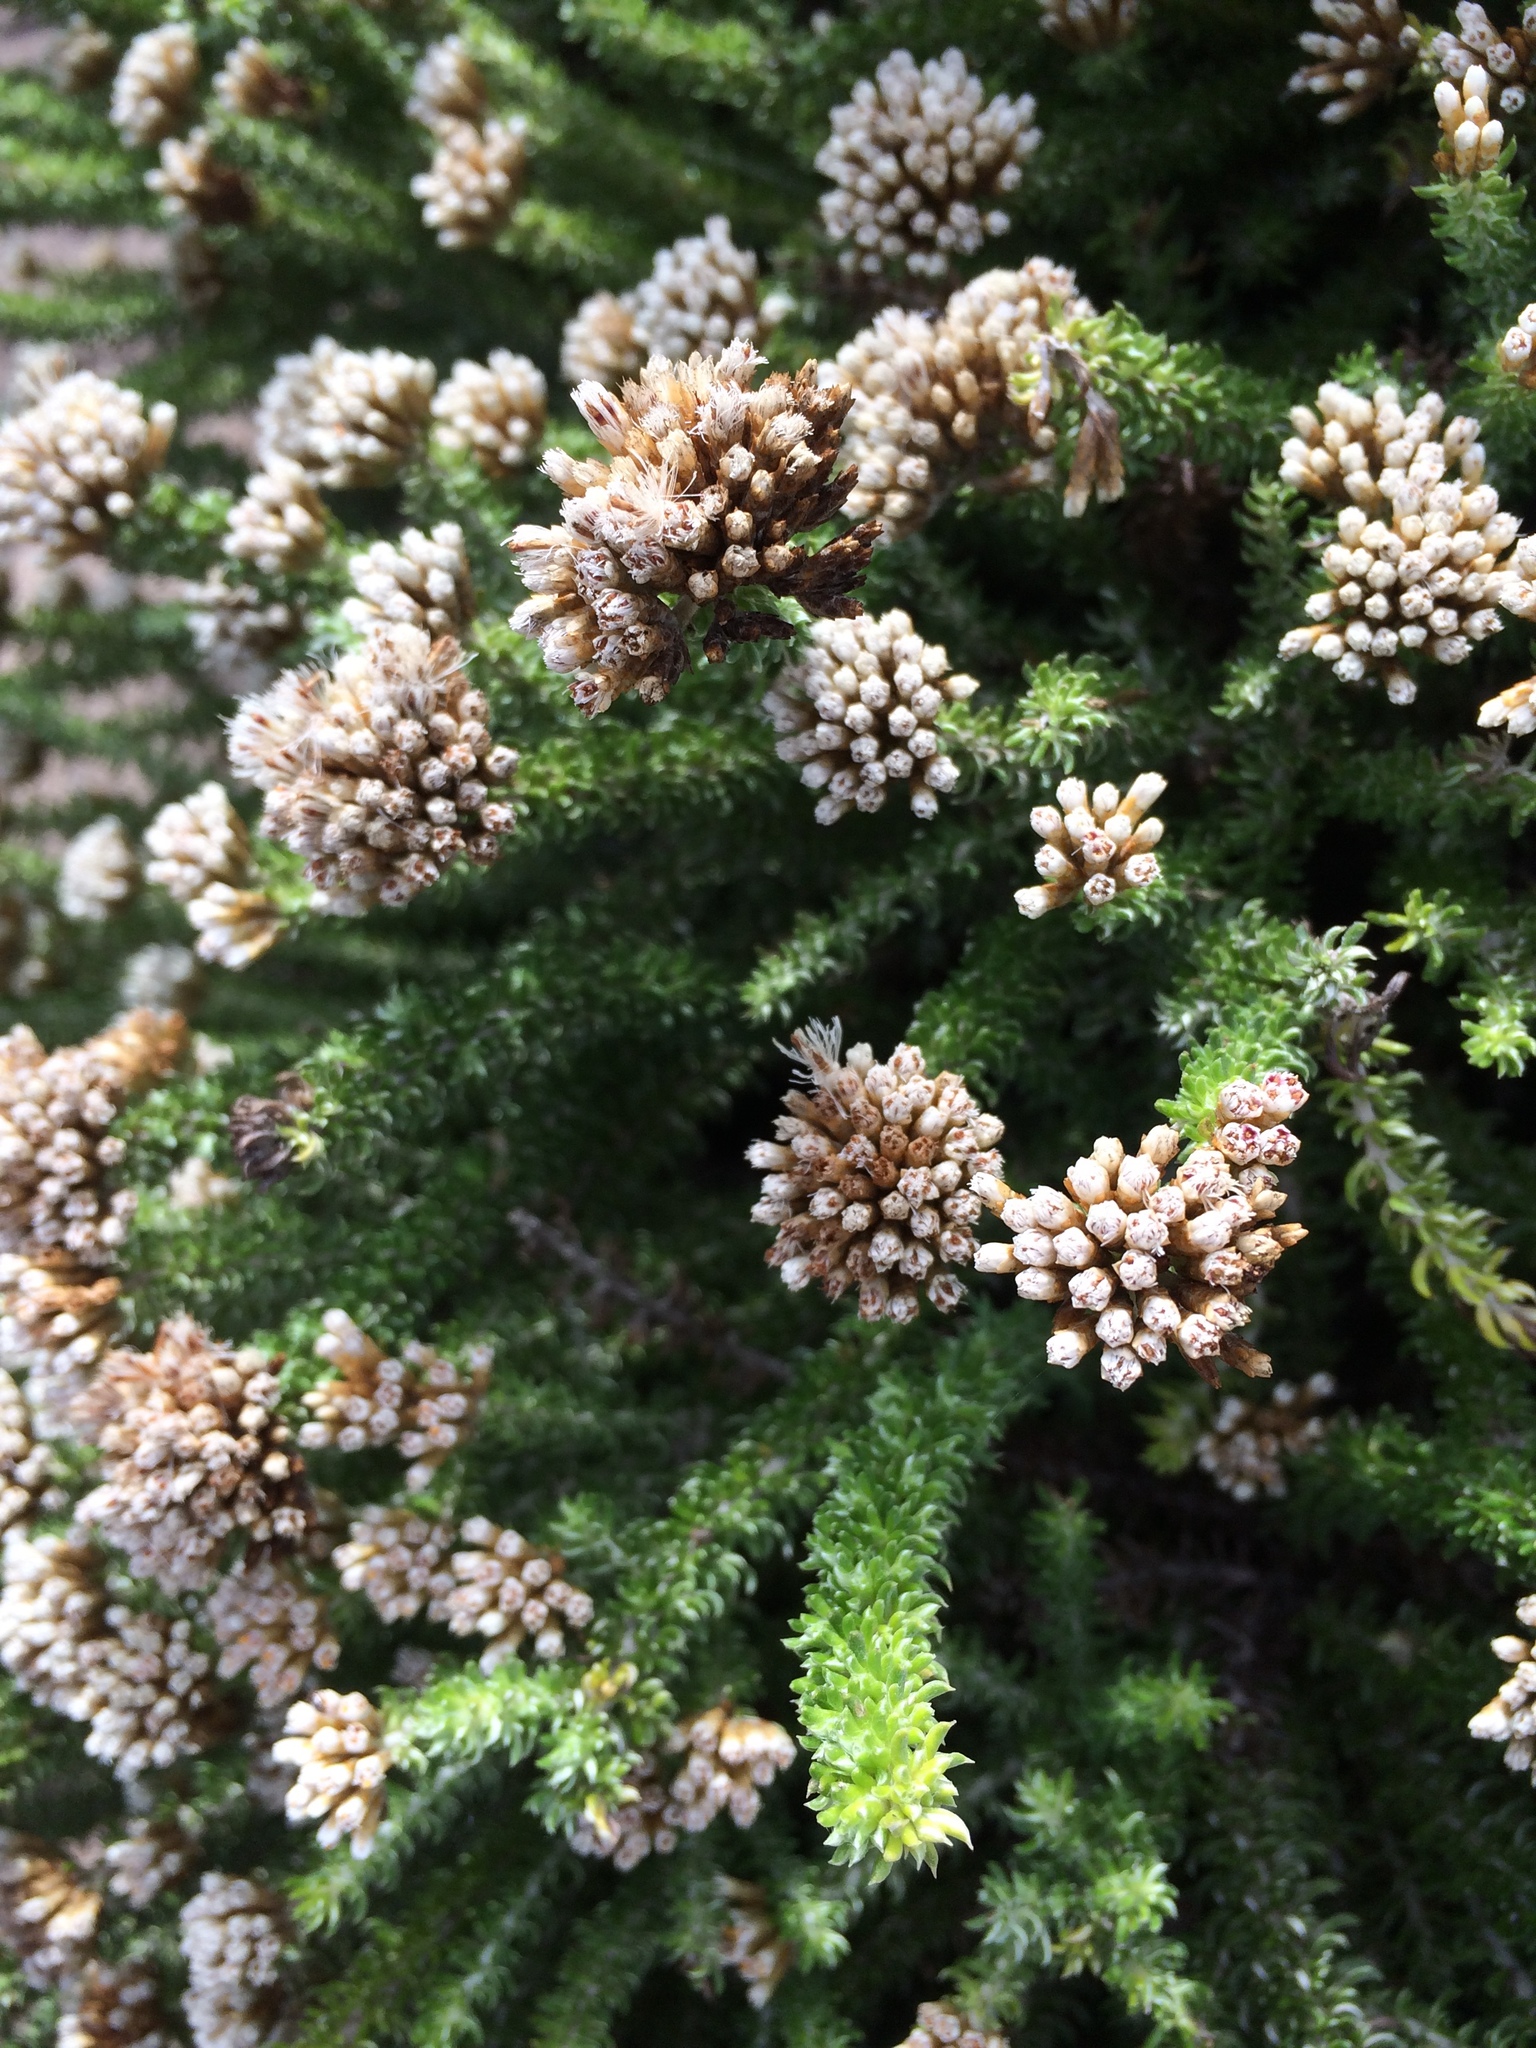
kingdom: Plantae
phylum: Tracheophyta
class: Magnoliopsida
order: Asterales
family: Asteraceae
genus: Metalasia
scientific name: Metalasia muricata
